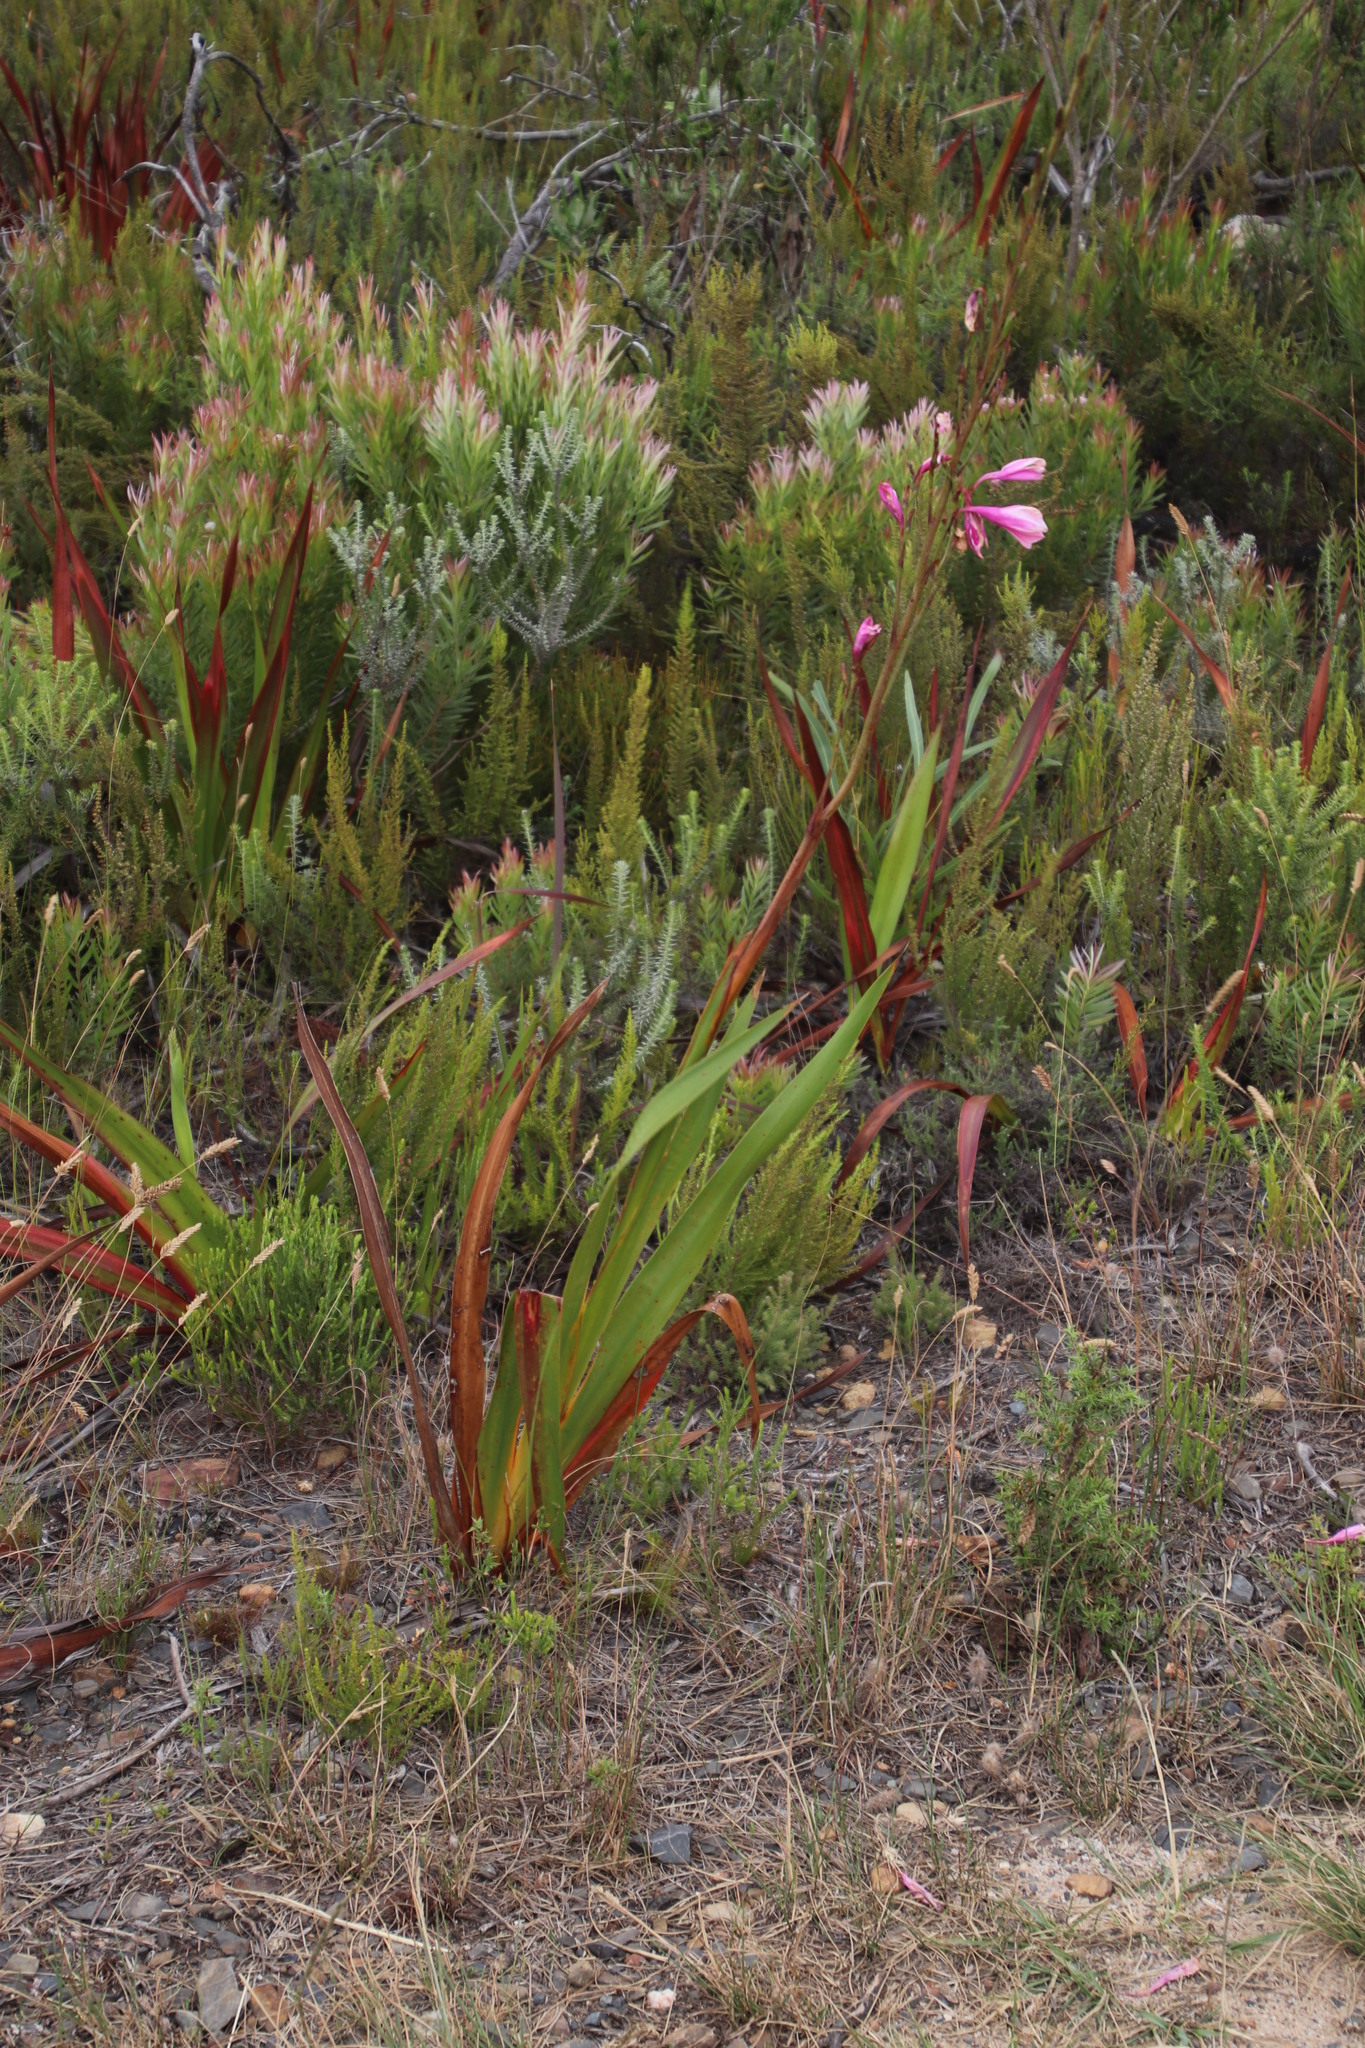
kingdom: Plantae
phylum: Tracheophyta
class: Liliopsida
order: Asparagales
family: Iridaceae
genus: Watsonia
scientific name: Watsonia borbonica
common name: Bugle-lily
